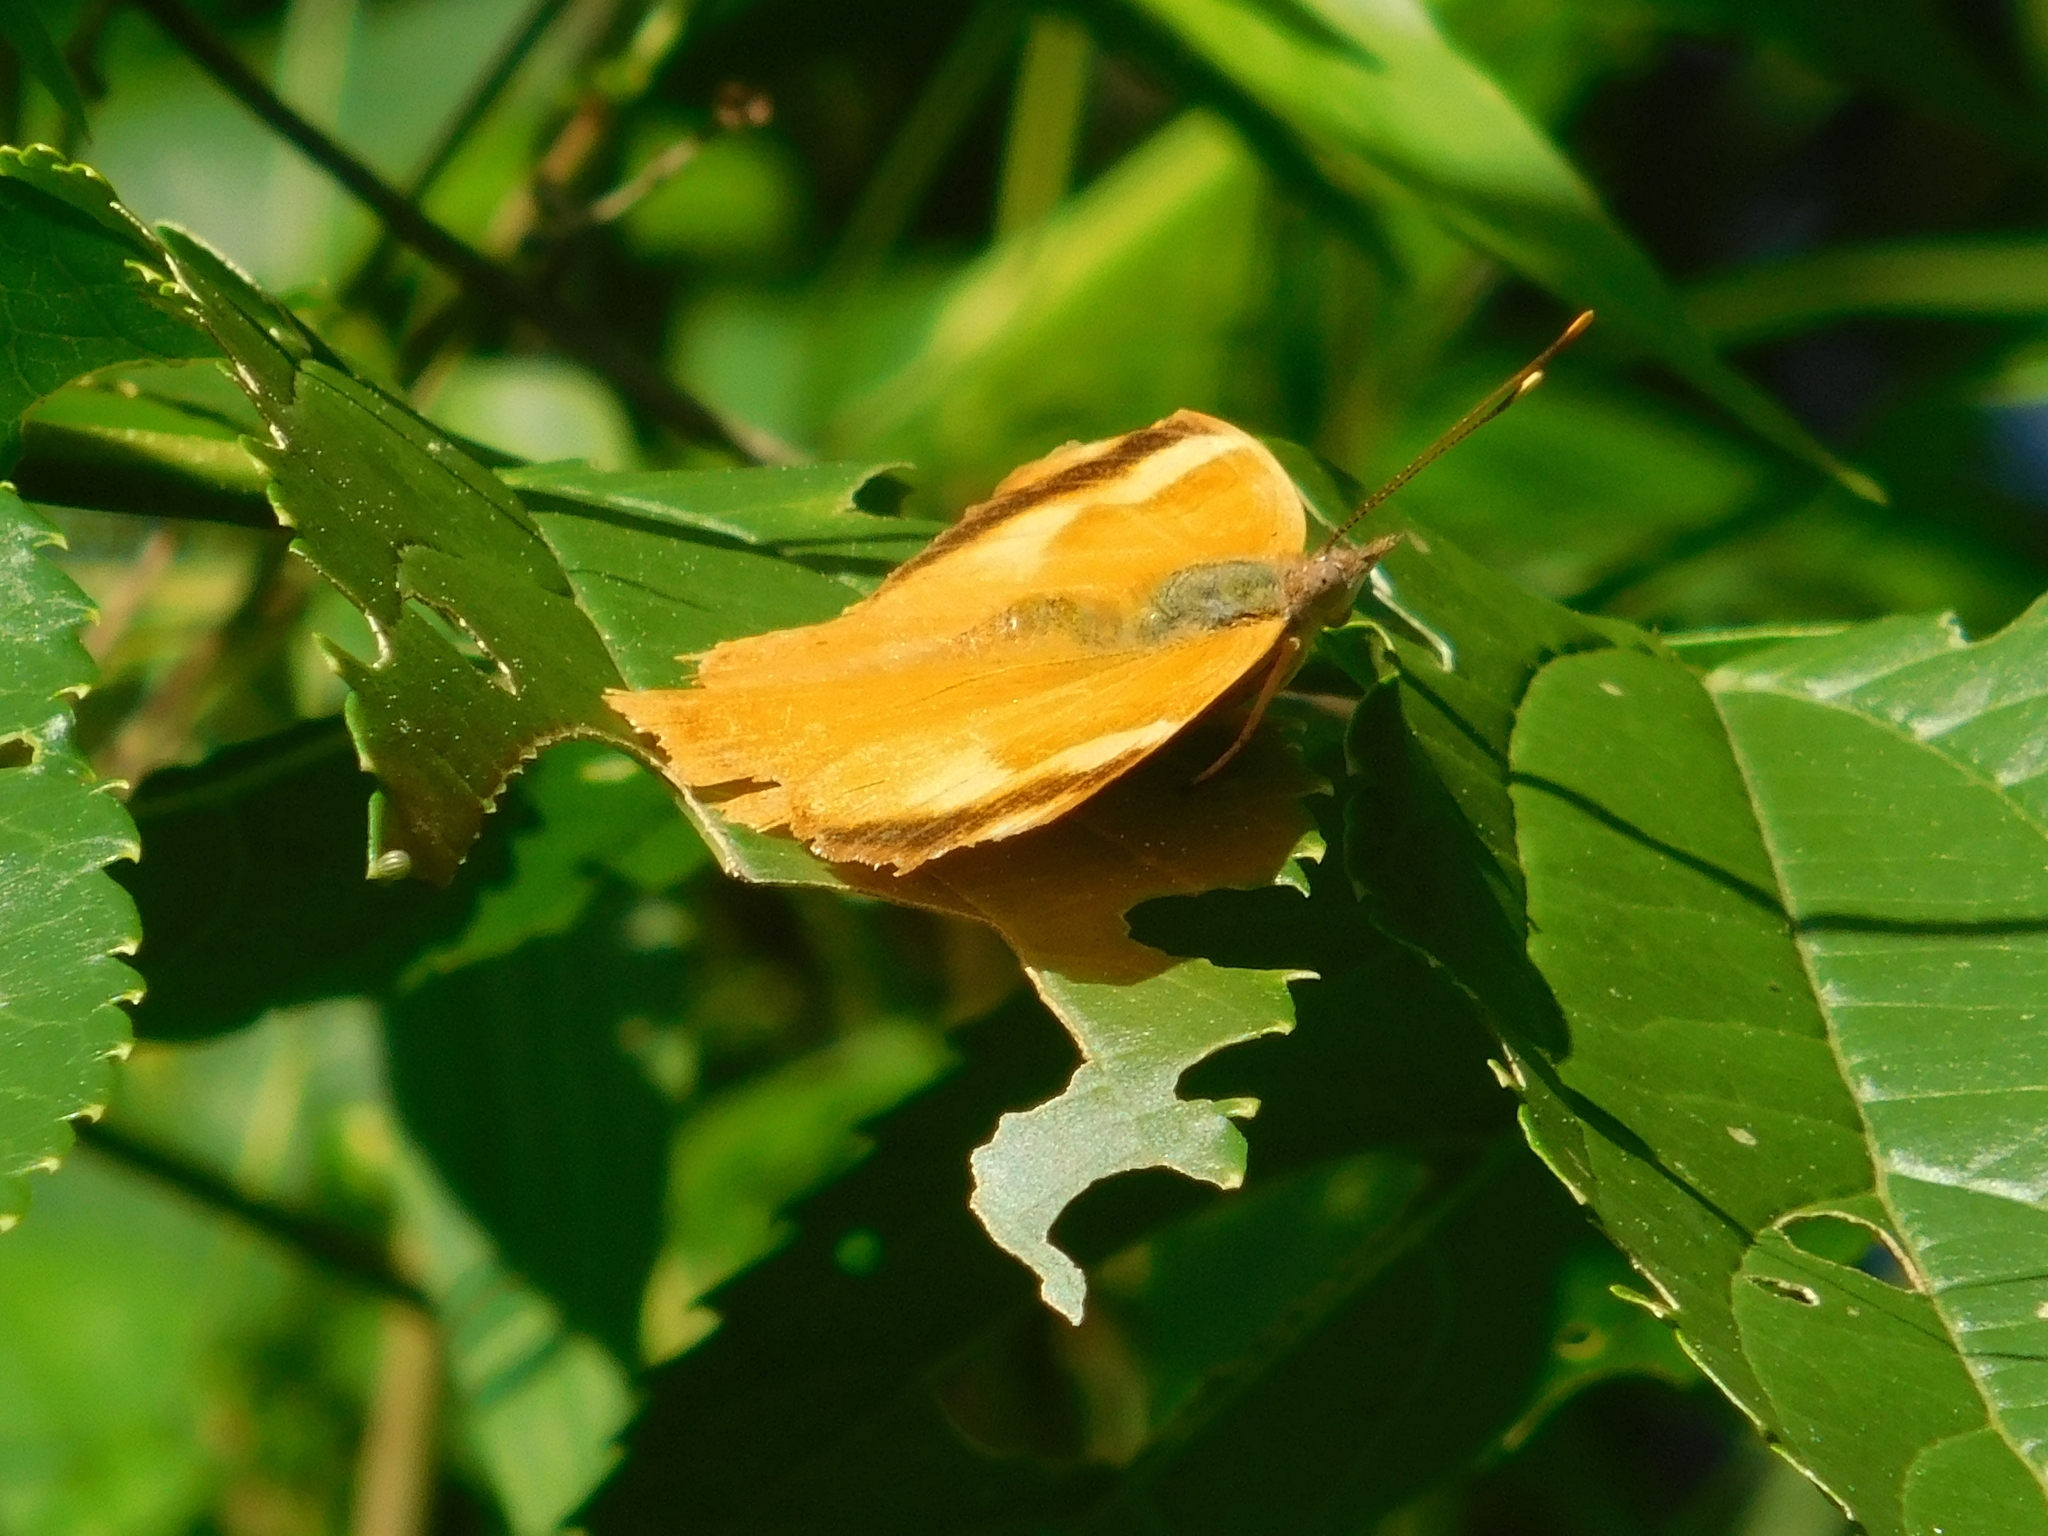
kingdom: Animalia
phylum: Arthropoda
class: Insecta
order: Lepidoptera
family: Nymphalidae
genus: Temenis
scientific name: Temenis laothoe
